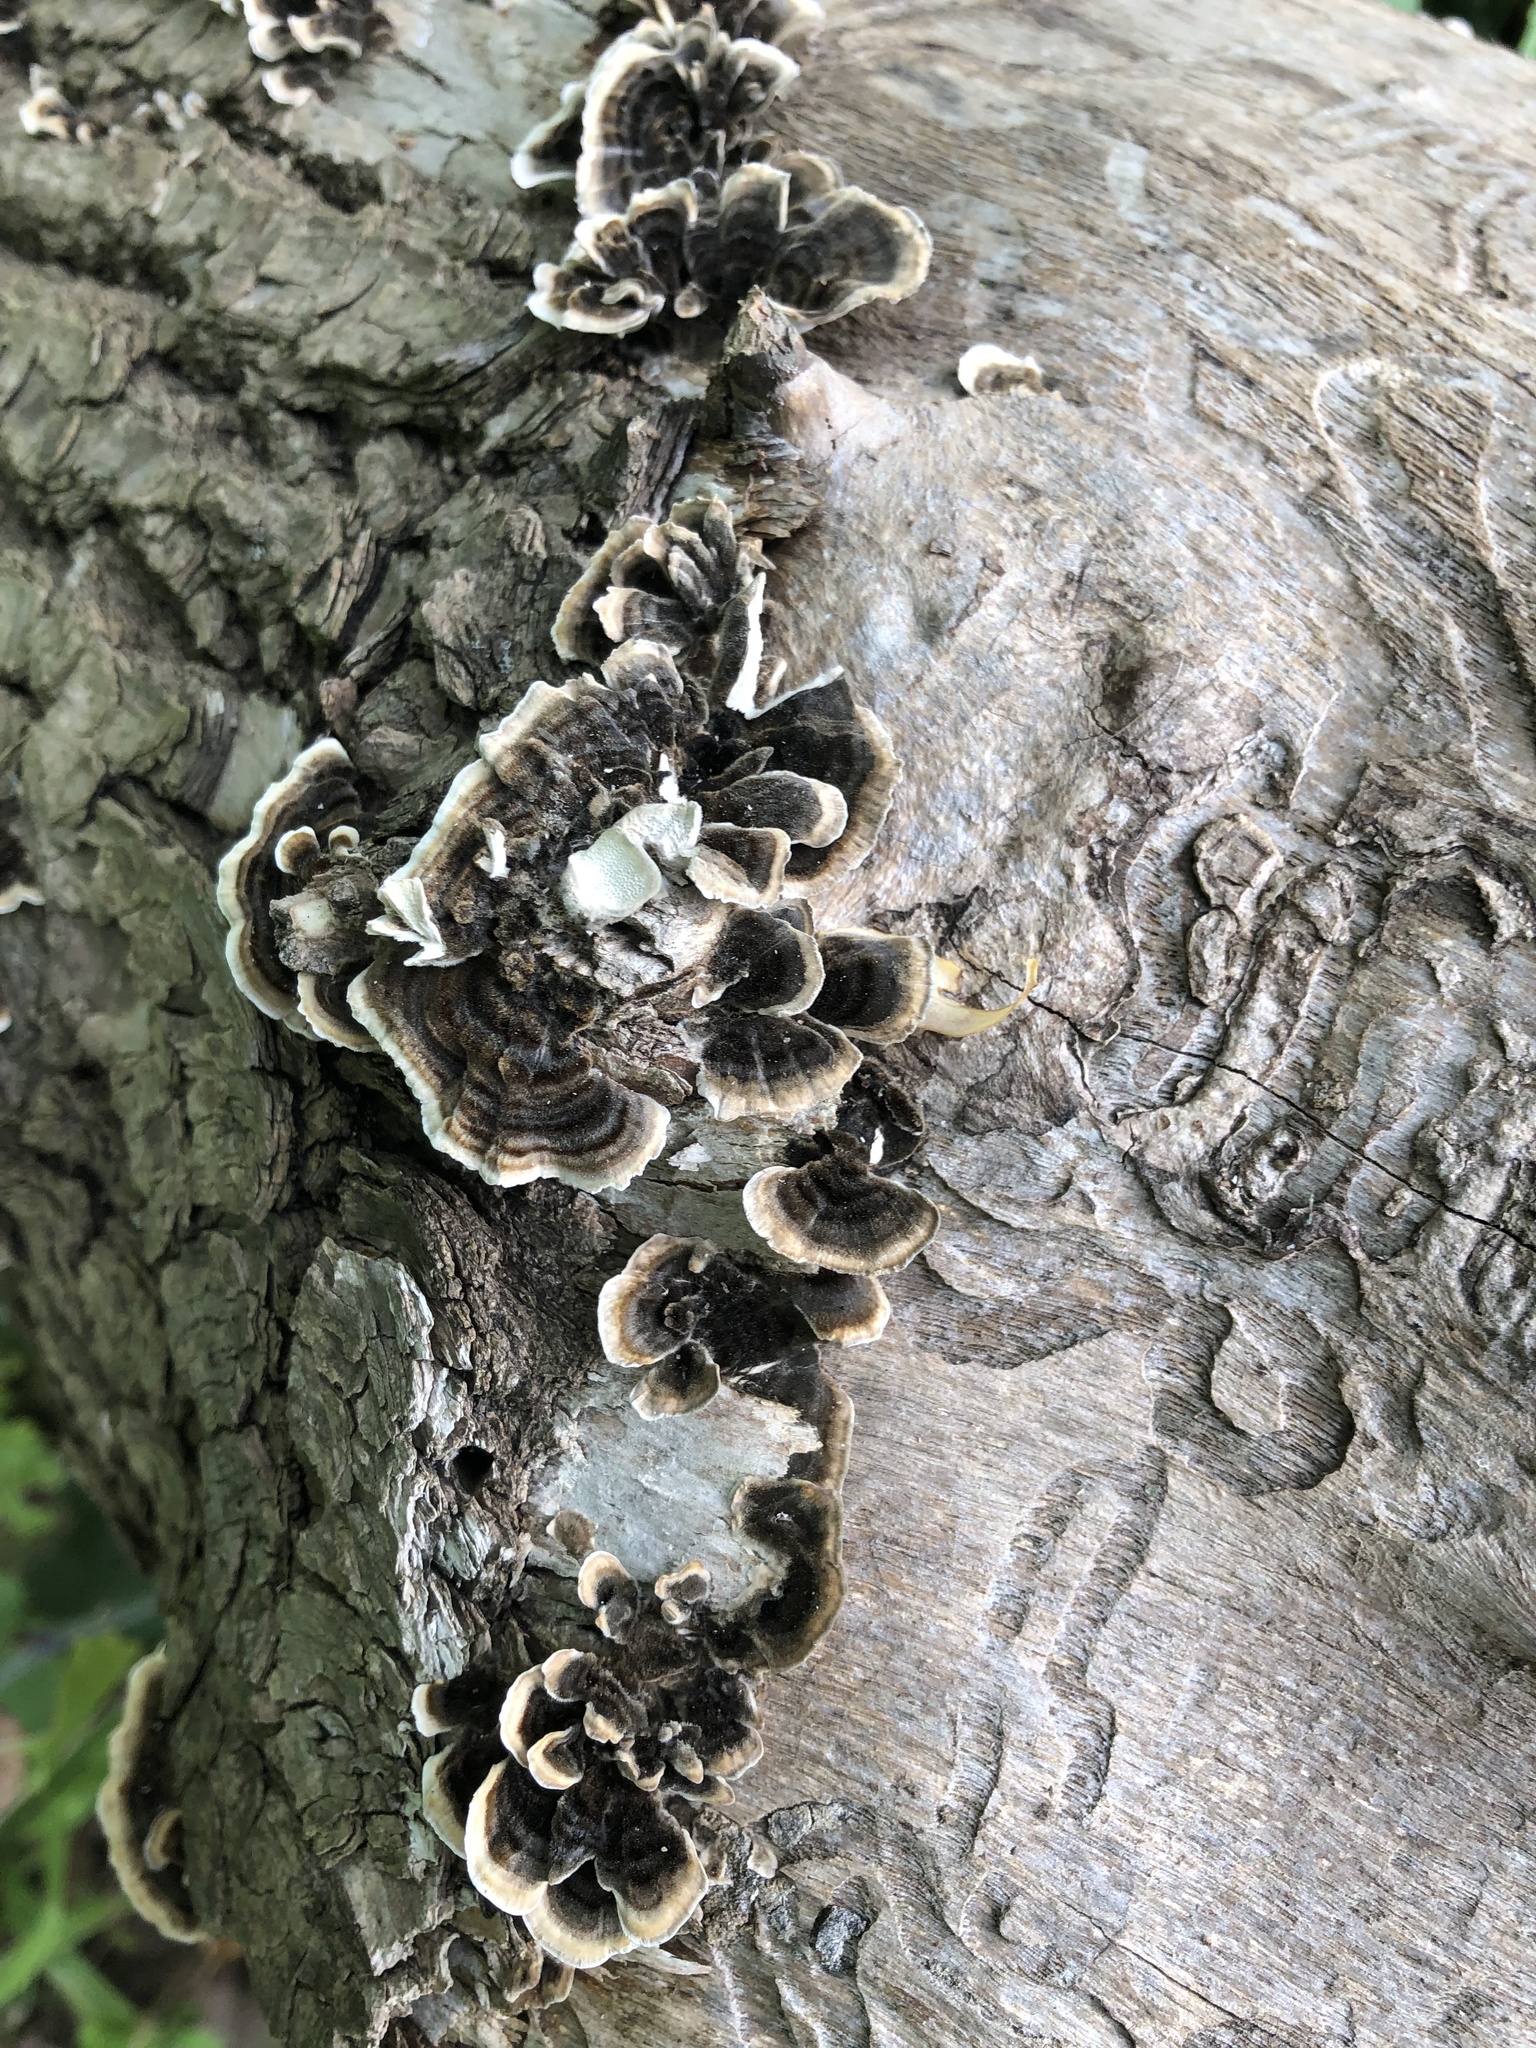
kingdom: Fungi
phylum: Basidiomycota
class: Agaricomycetes
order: Polyporales
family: Polyporaceae
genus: Trametes
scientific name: Trametes versicolor
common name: Turkeytail
